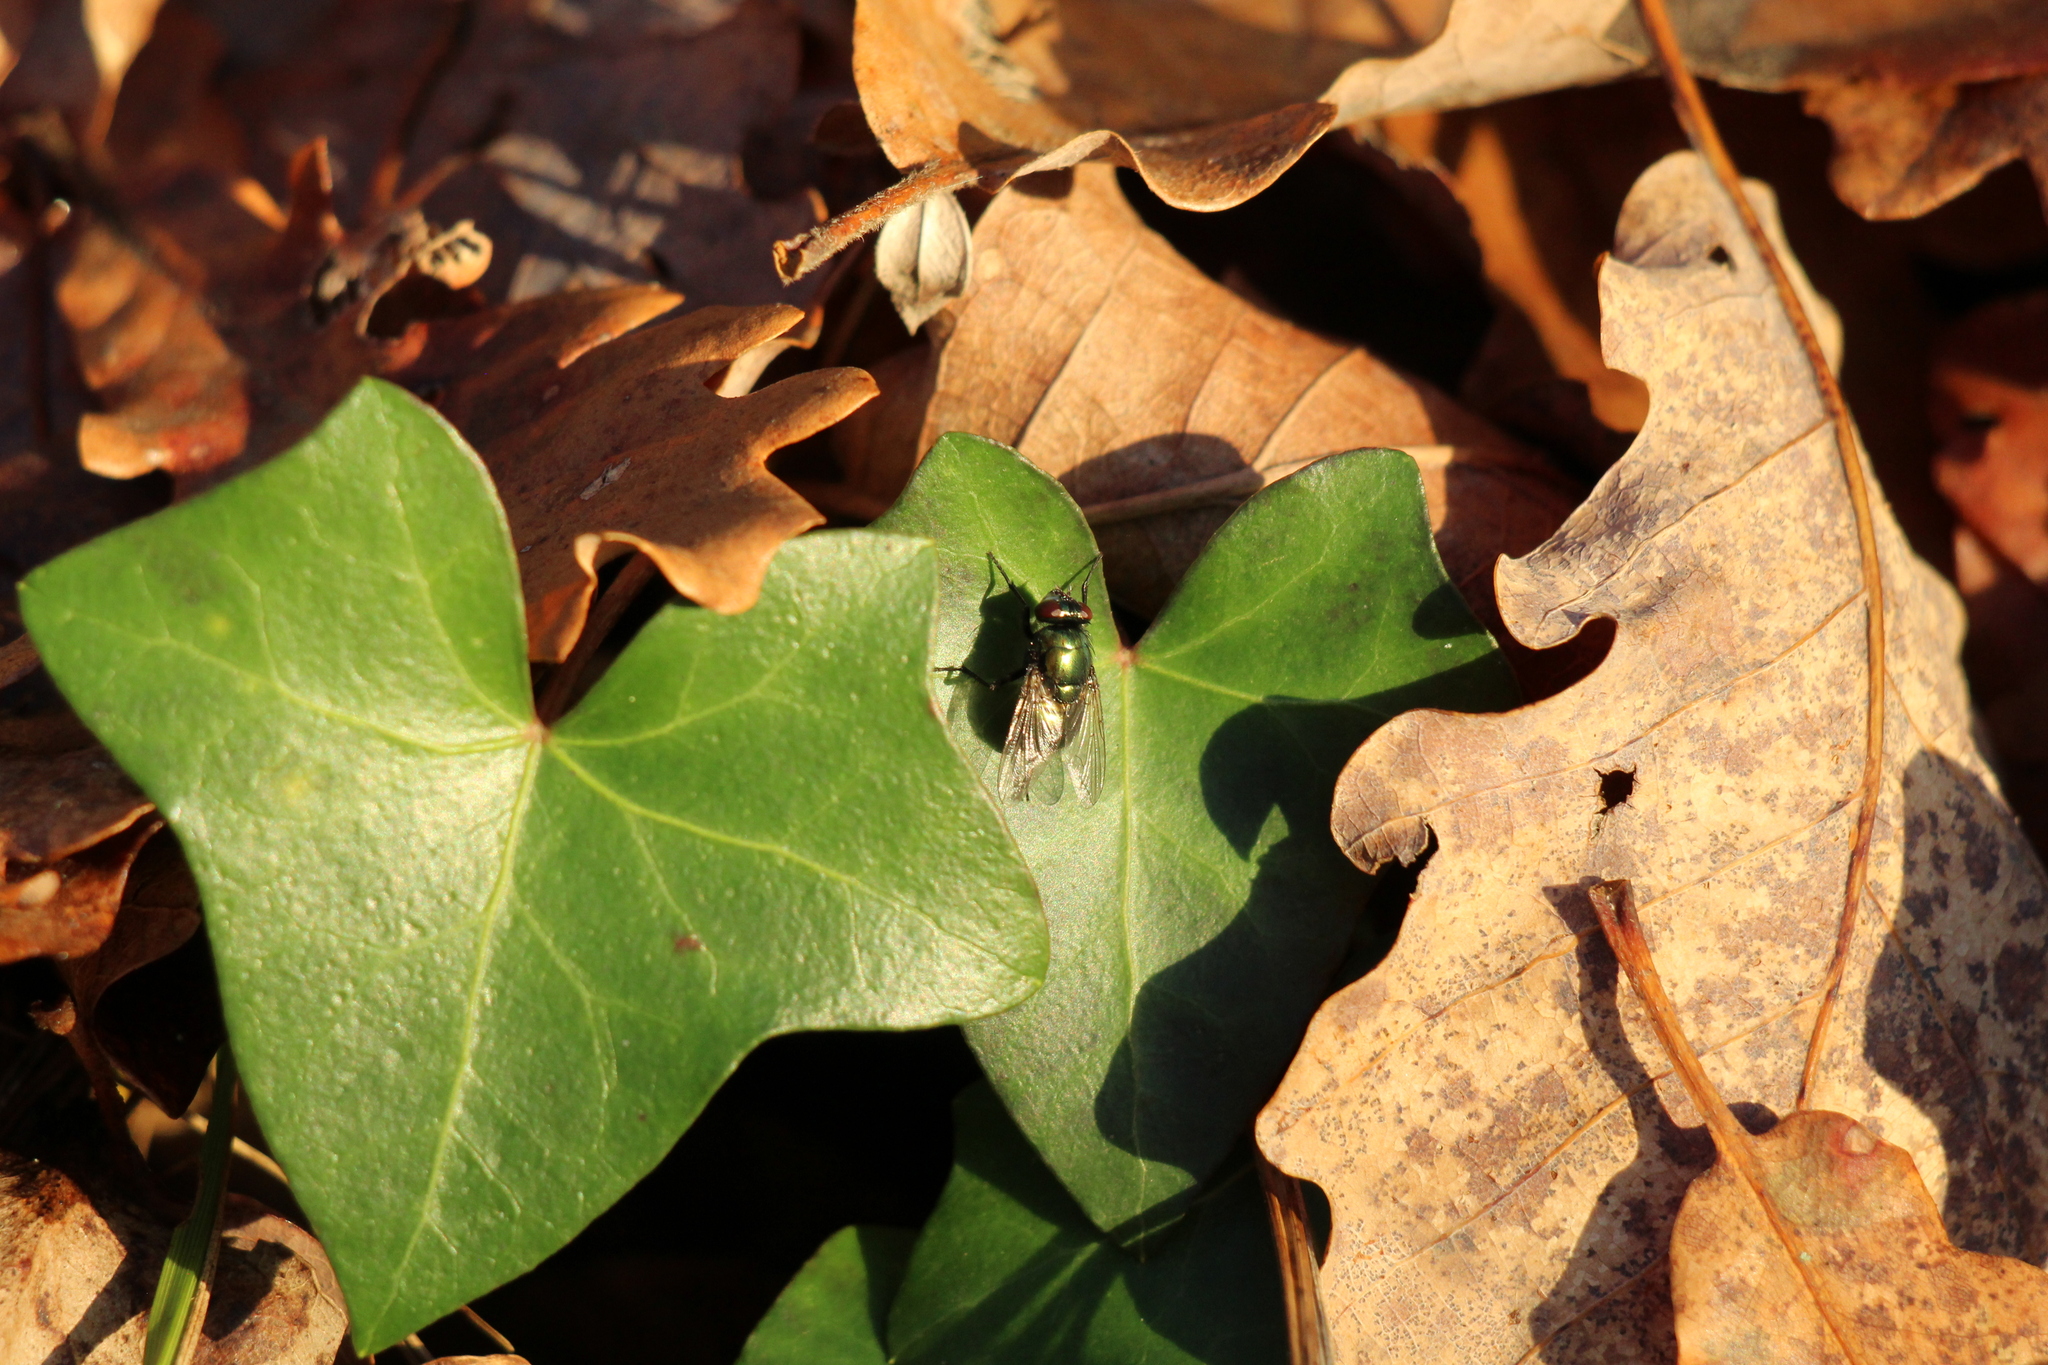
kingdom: Animalia
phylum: Arthropoda
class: Insecta
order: Diptera
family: Muscidae
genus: Neomyia
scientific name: Neomyia
